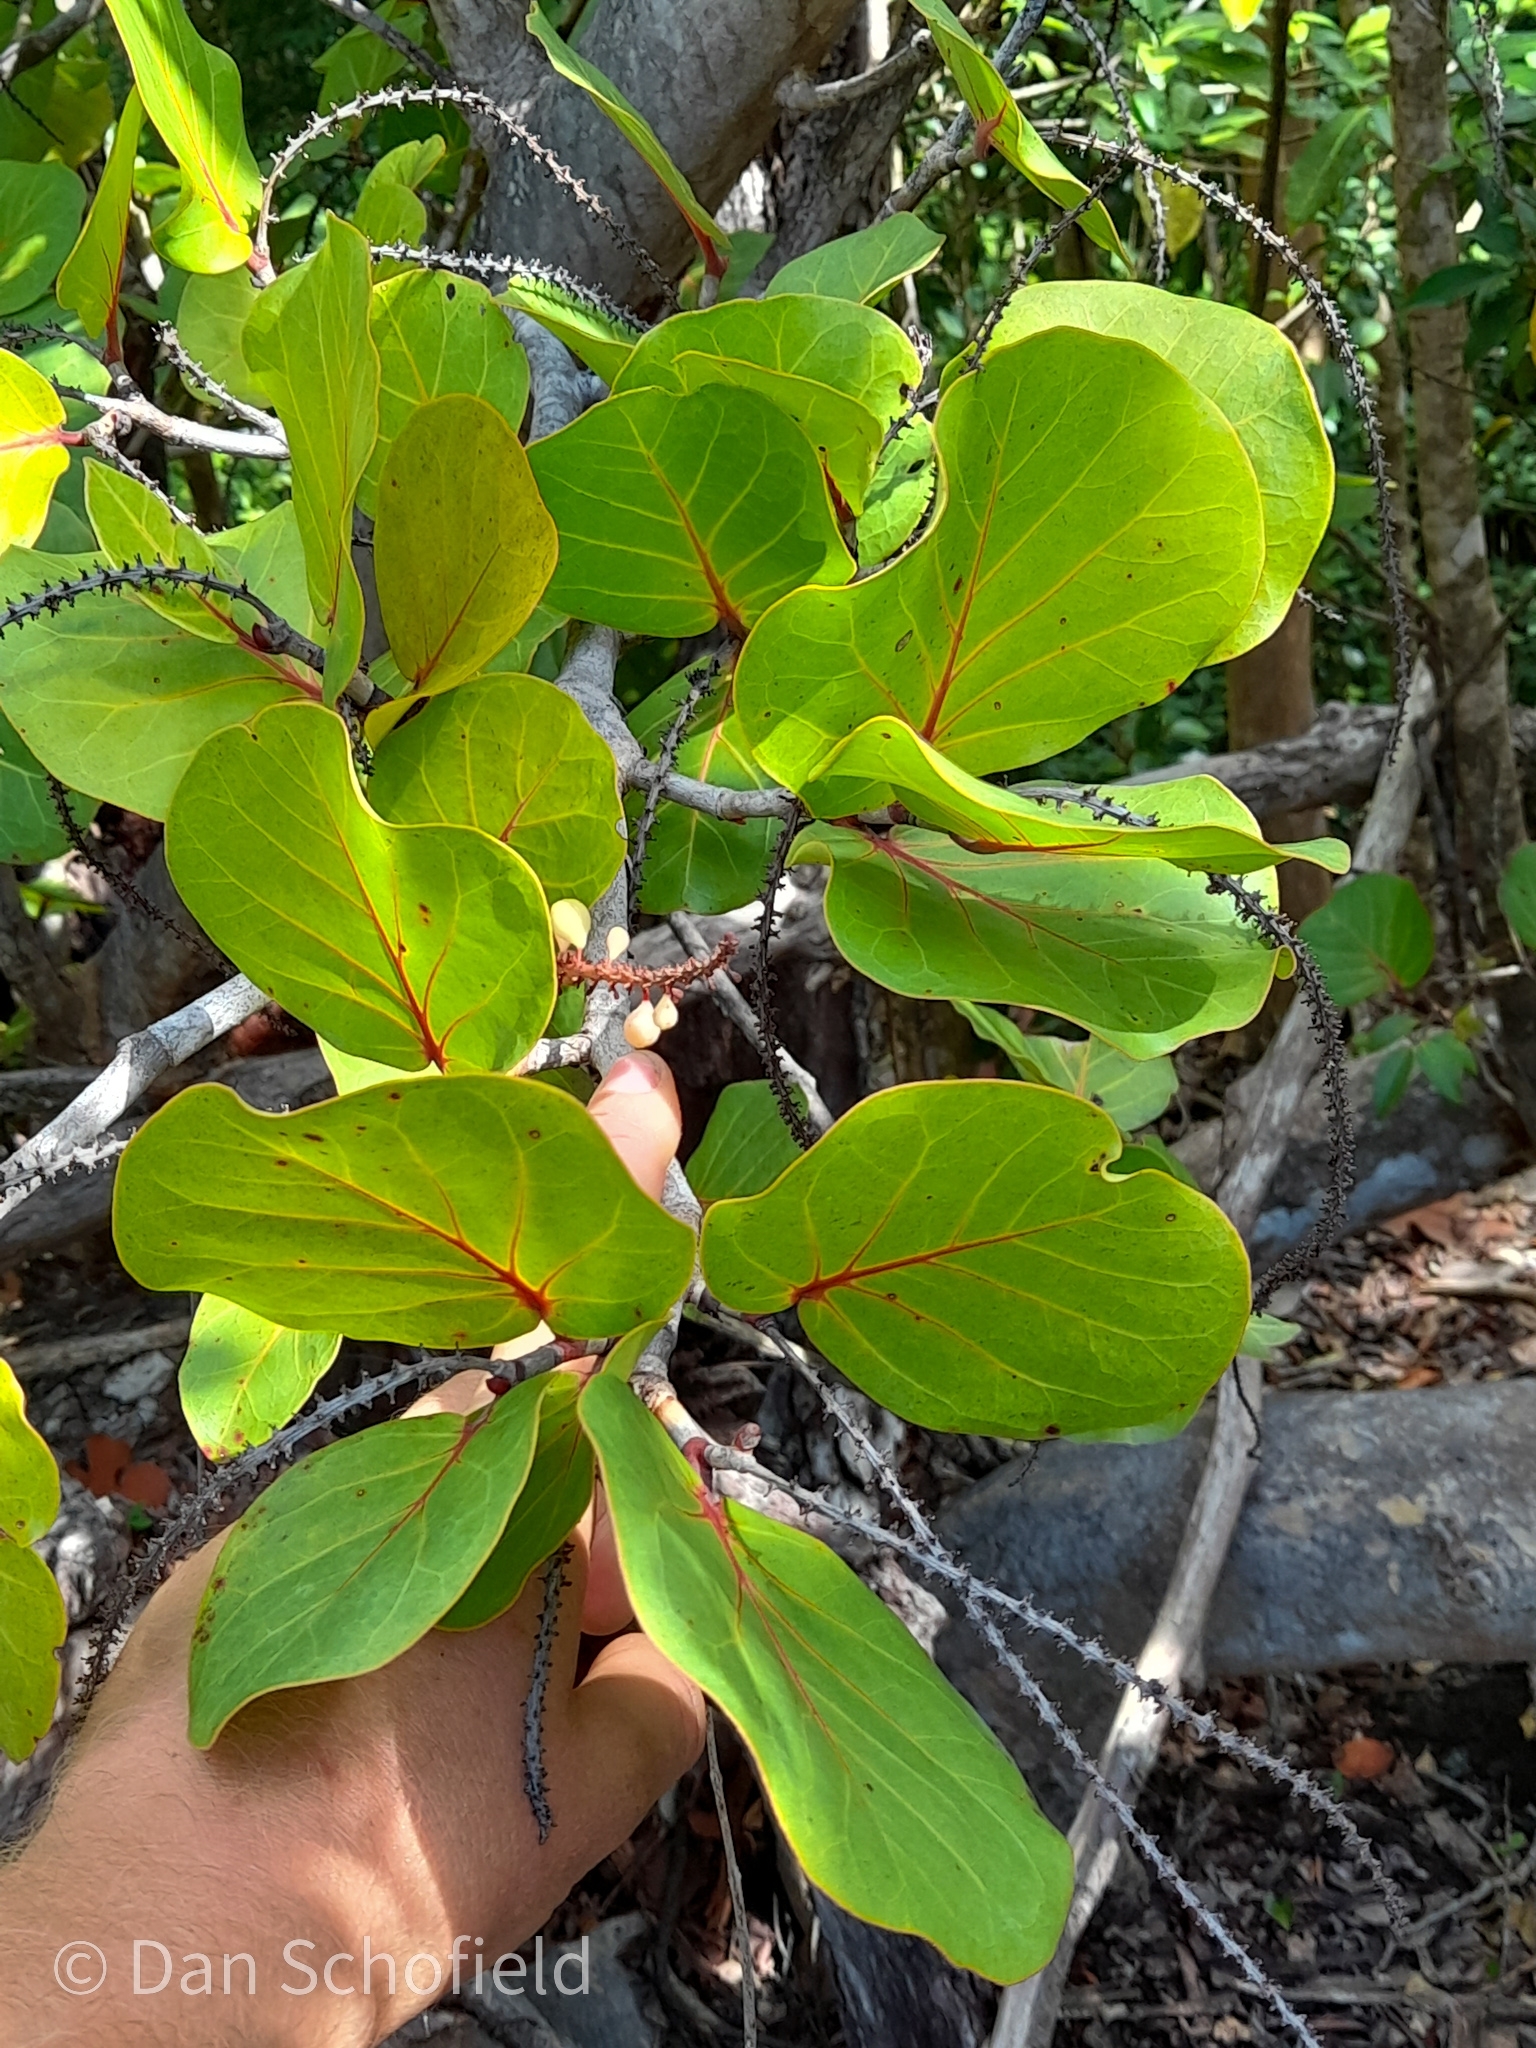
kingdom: Plantae
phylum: Tracheophyta
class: Magnoliopsida
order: Caryophyllales
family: Polygonaceae
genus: Coccoloba
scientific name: Coccoloba uvifera
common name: Seagrape
